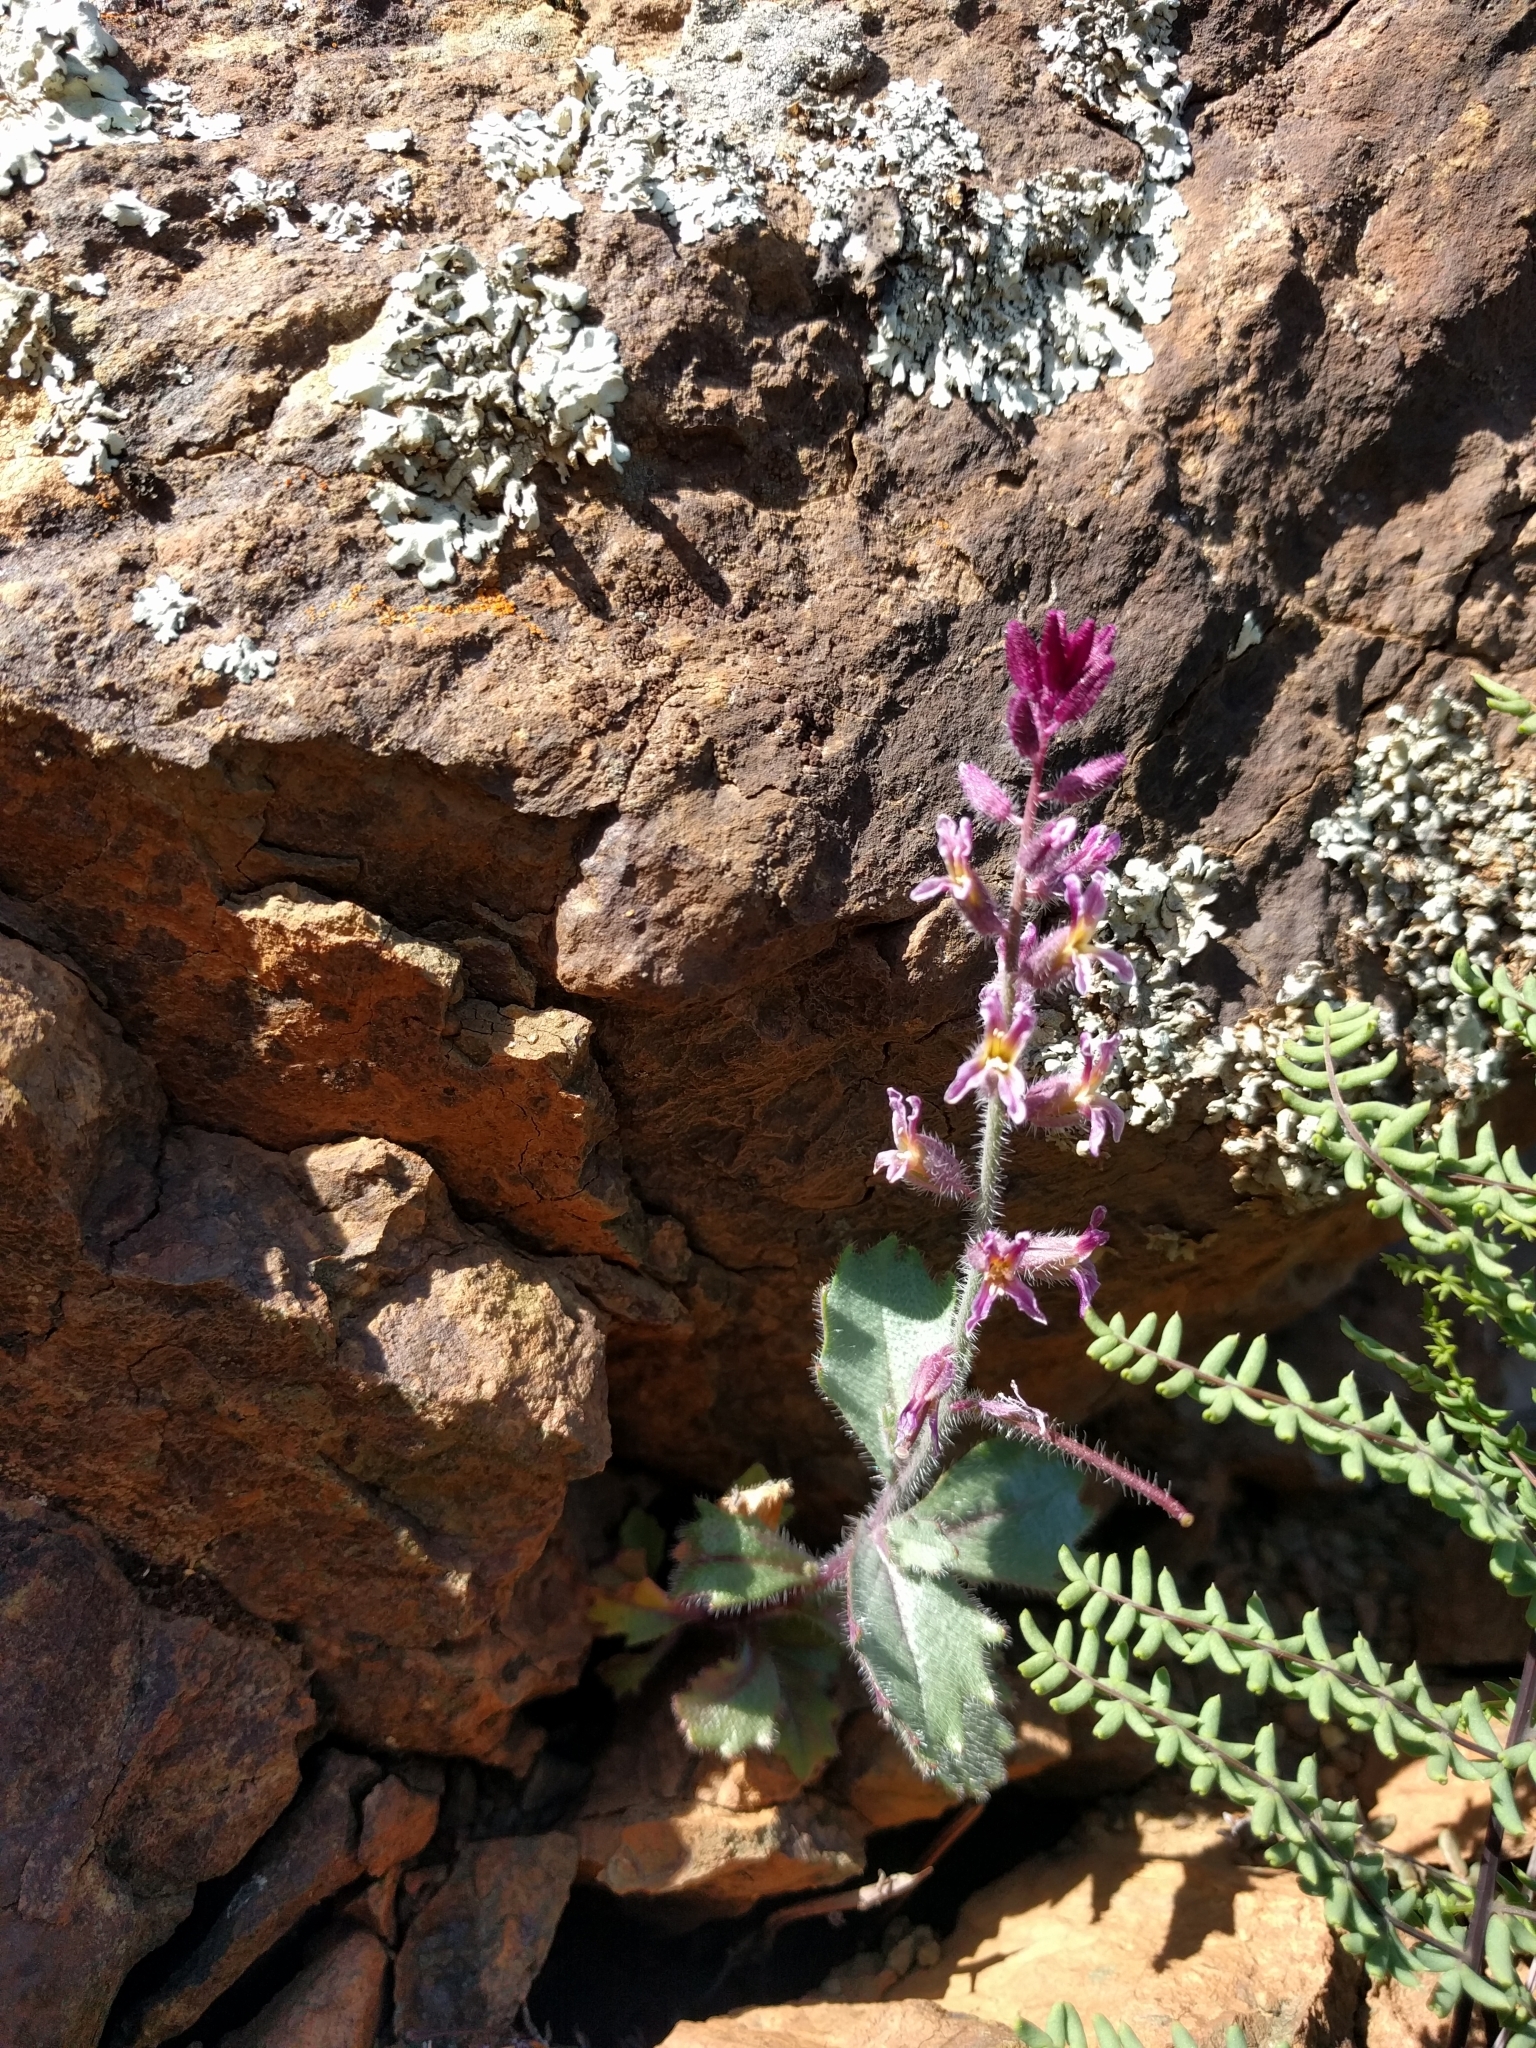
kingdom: Plantae
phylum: Tracheophyta
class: Magnoliopsida
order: Brassicales
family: Brassicaceae
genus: Streptanthus
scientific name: Streptanthus hispidus
